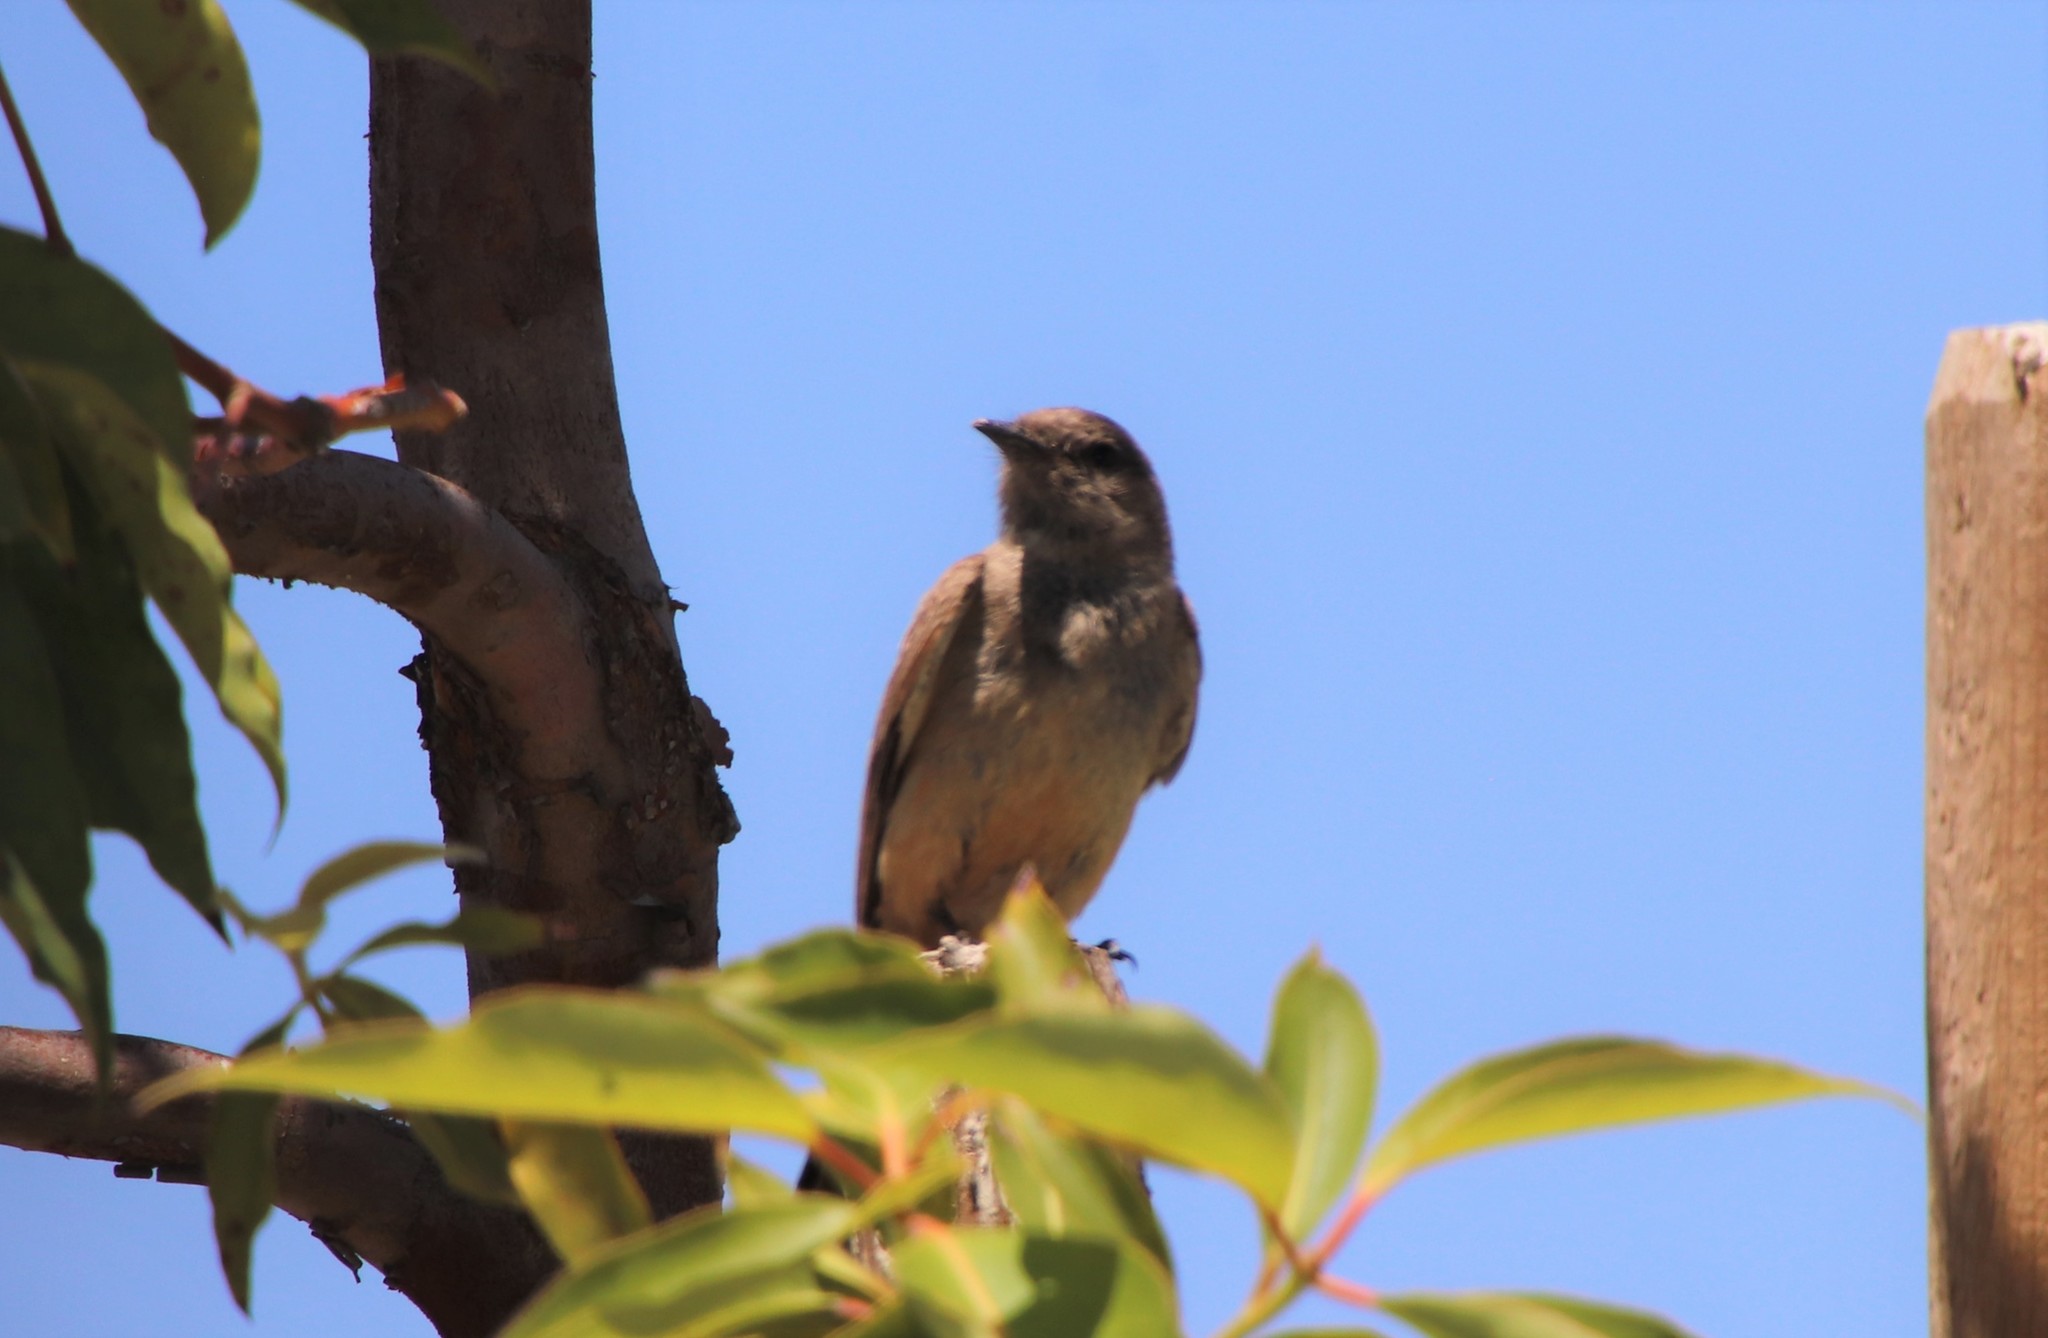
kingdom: Animalia
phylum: Chordata
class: Aves
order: Passeriformes
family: Tyrannidae
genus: Sayornis
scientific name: Sayornis saya
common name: Say's phoebe
